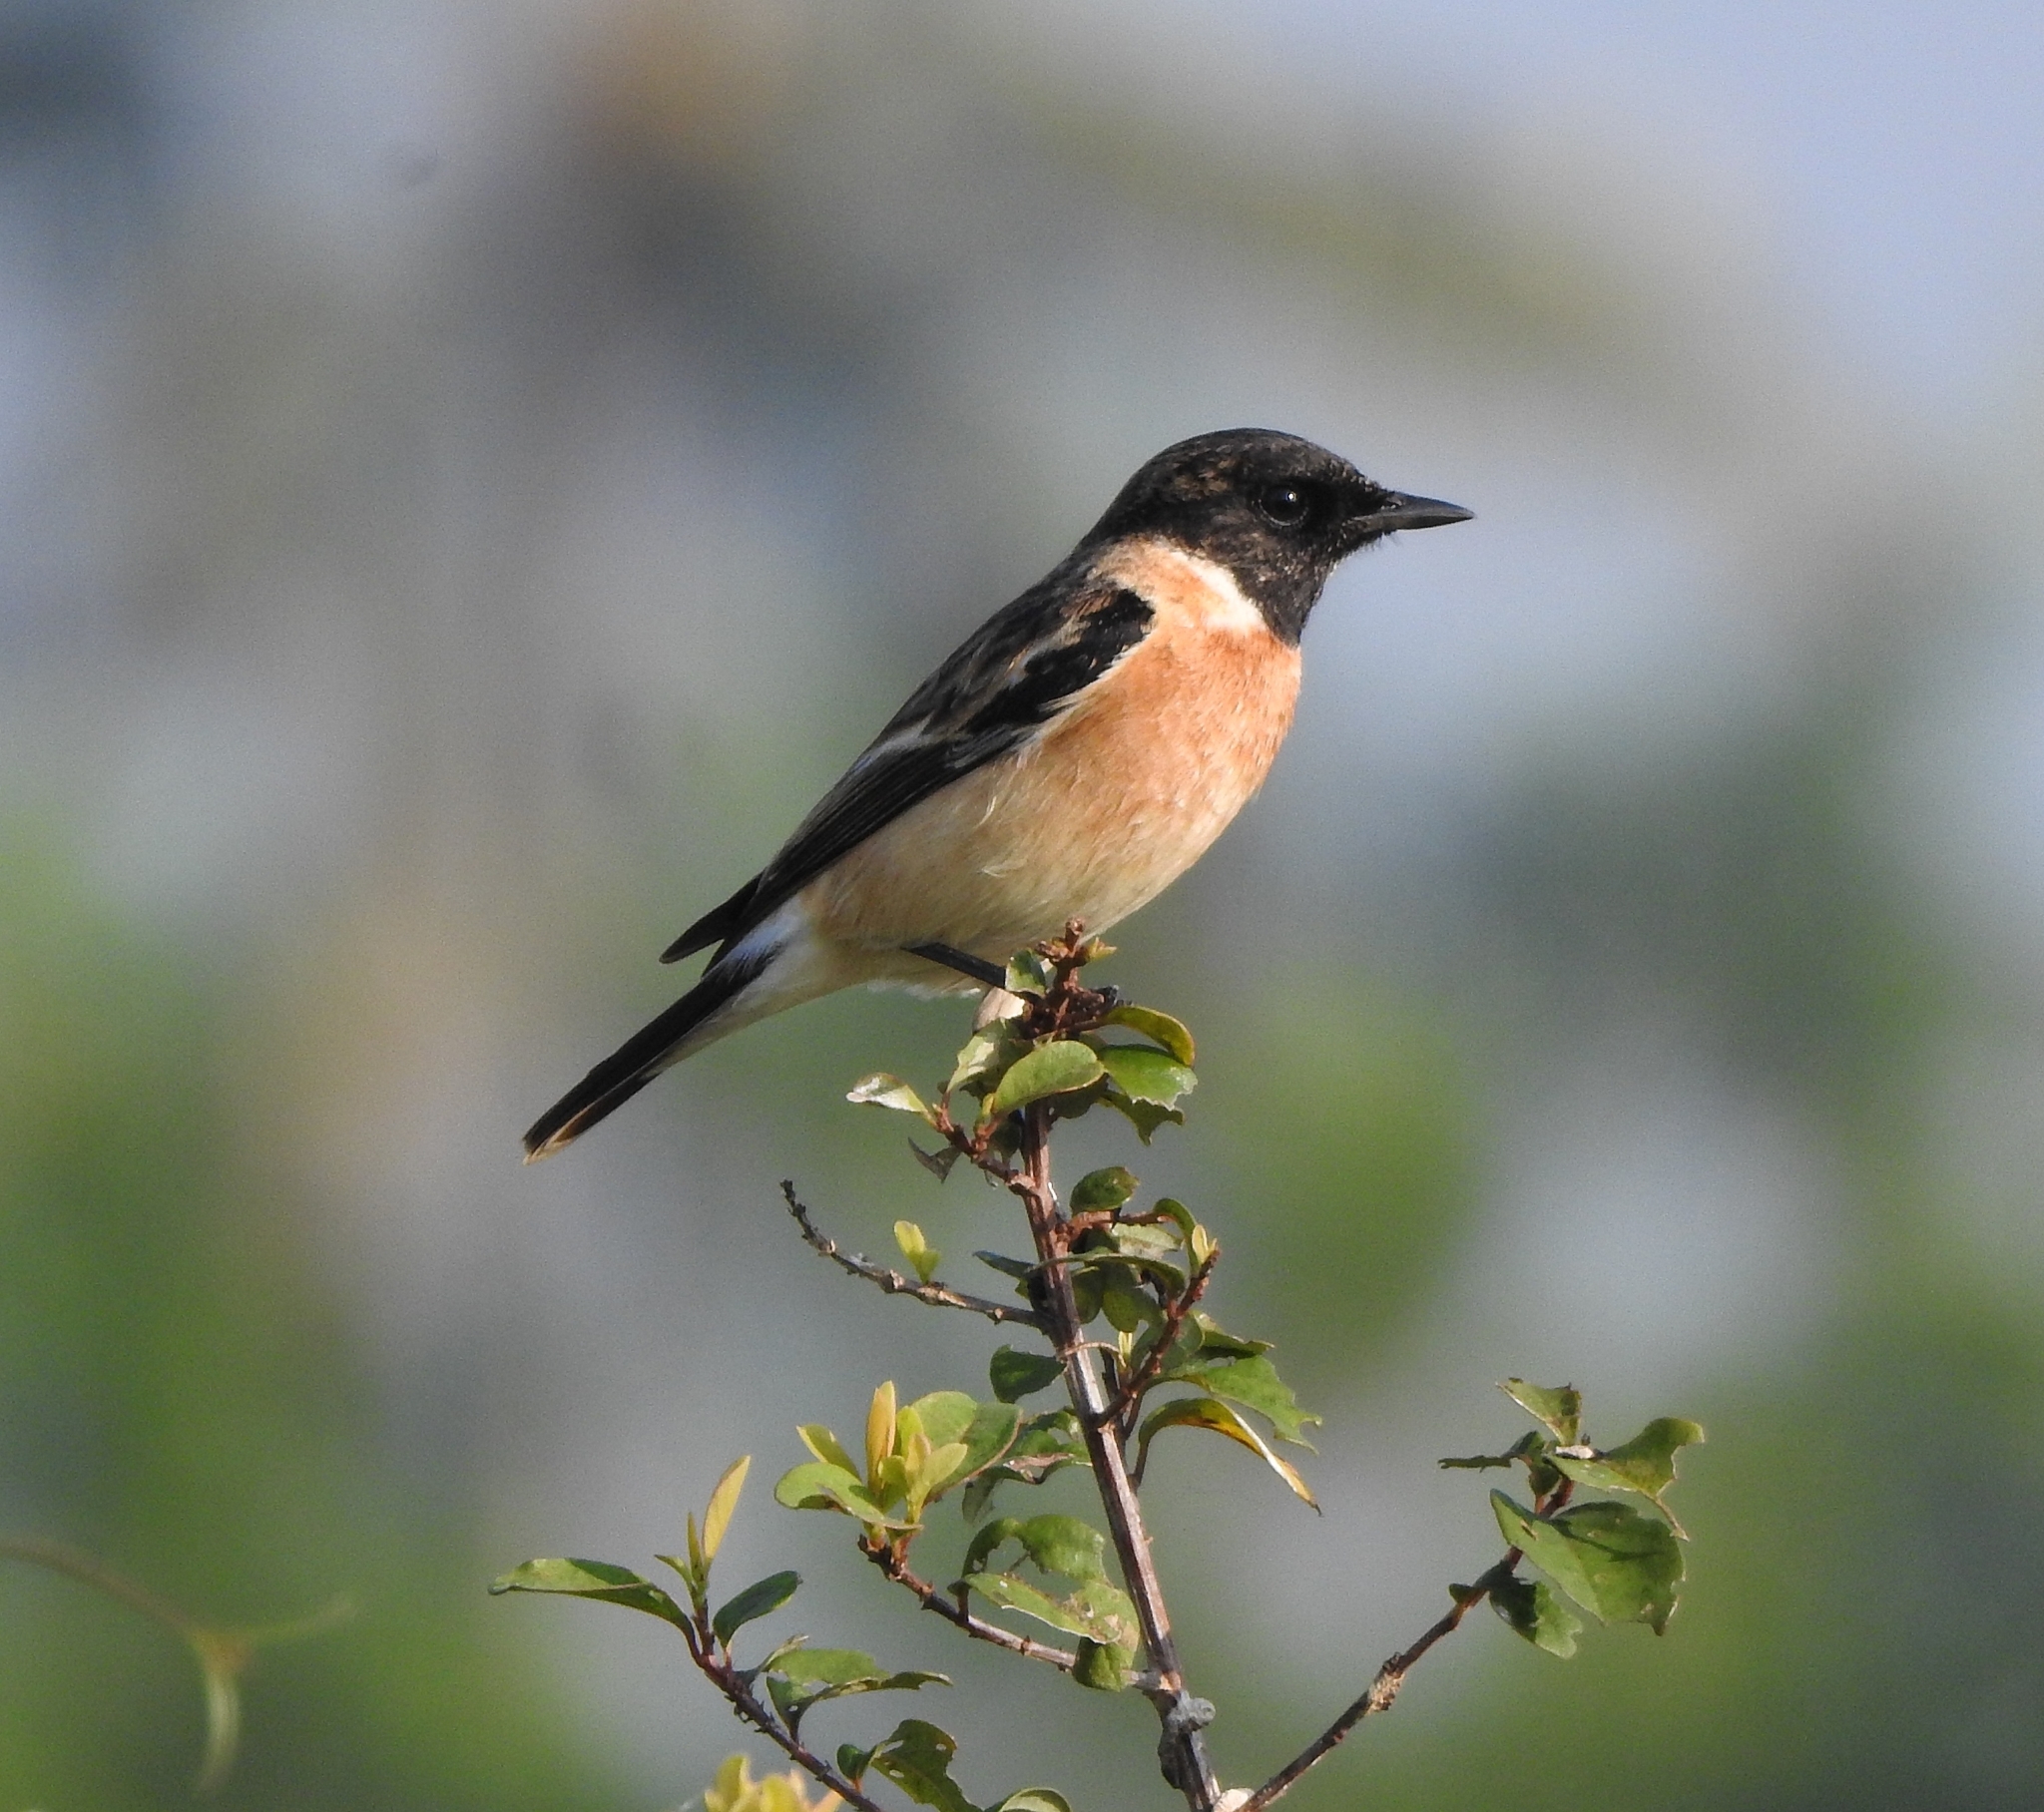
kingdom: Animalia
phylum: Chordata
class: Aves
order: Passeriformes
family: Muscicapidae
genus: Saxicola
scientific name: Saxicola maurus
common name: Siberian stonechat
